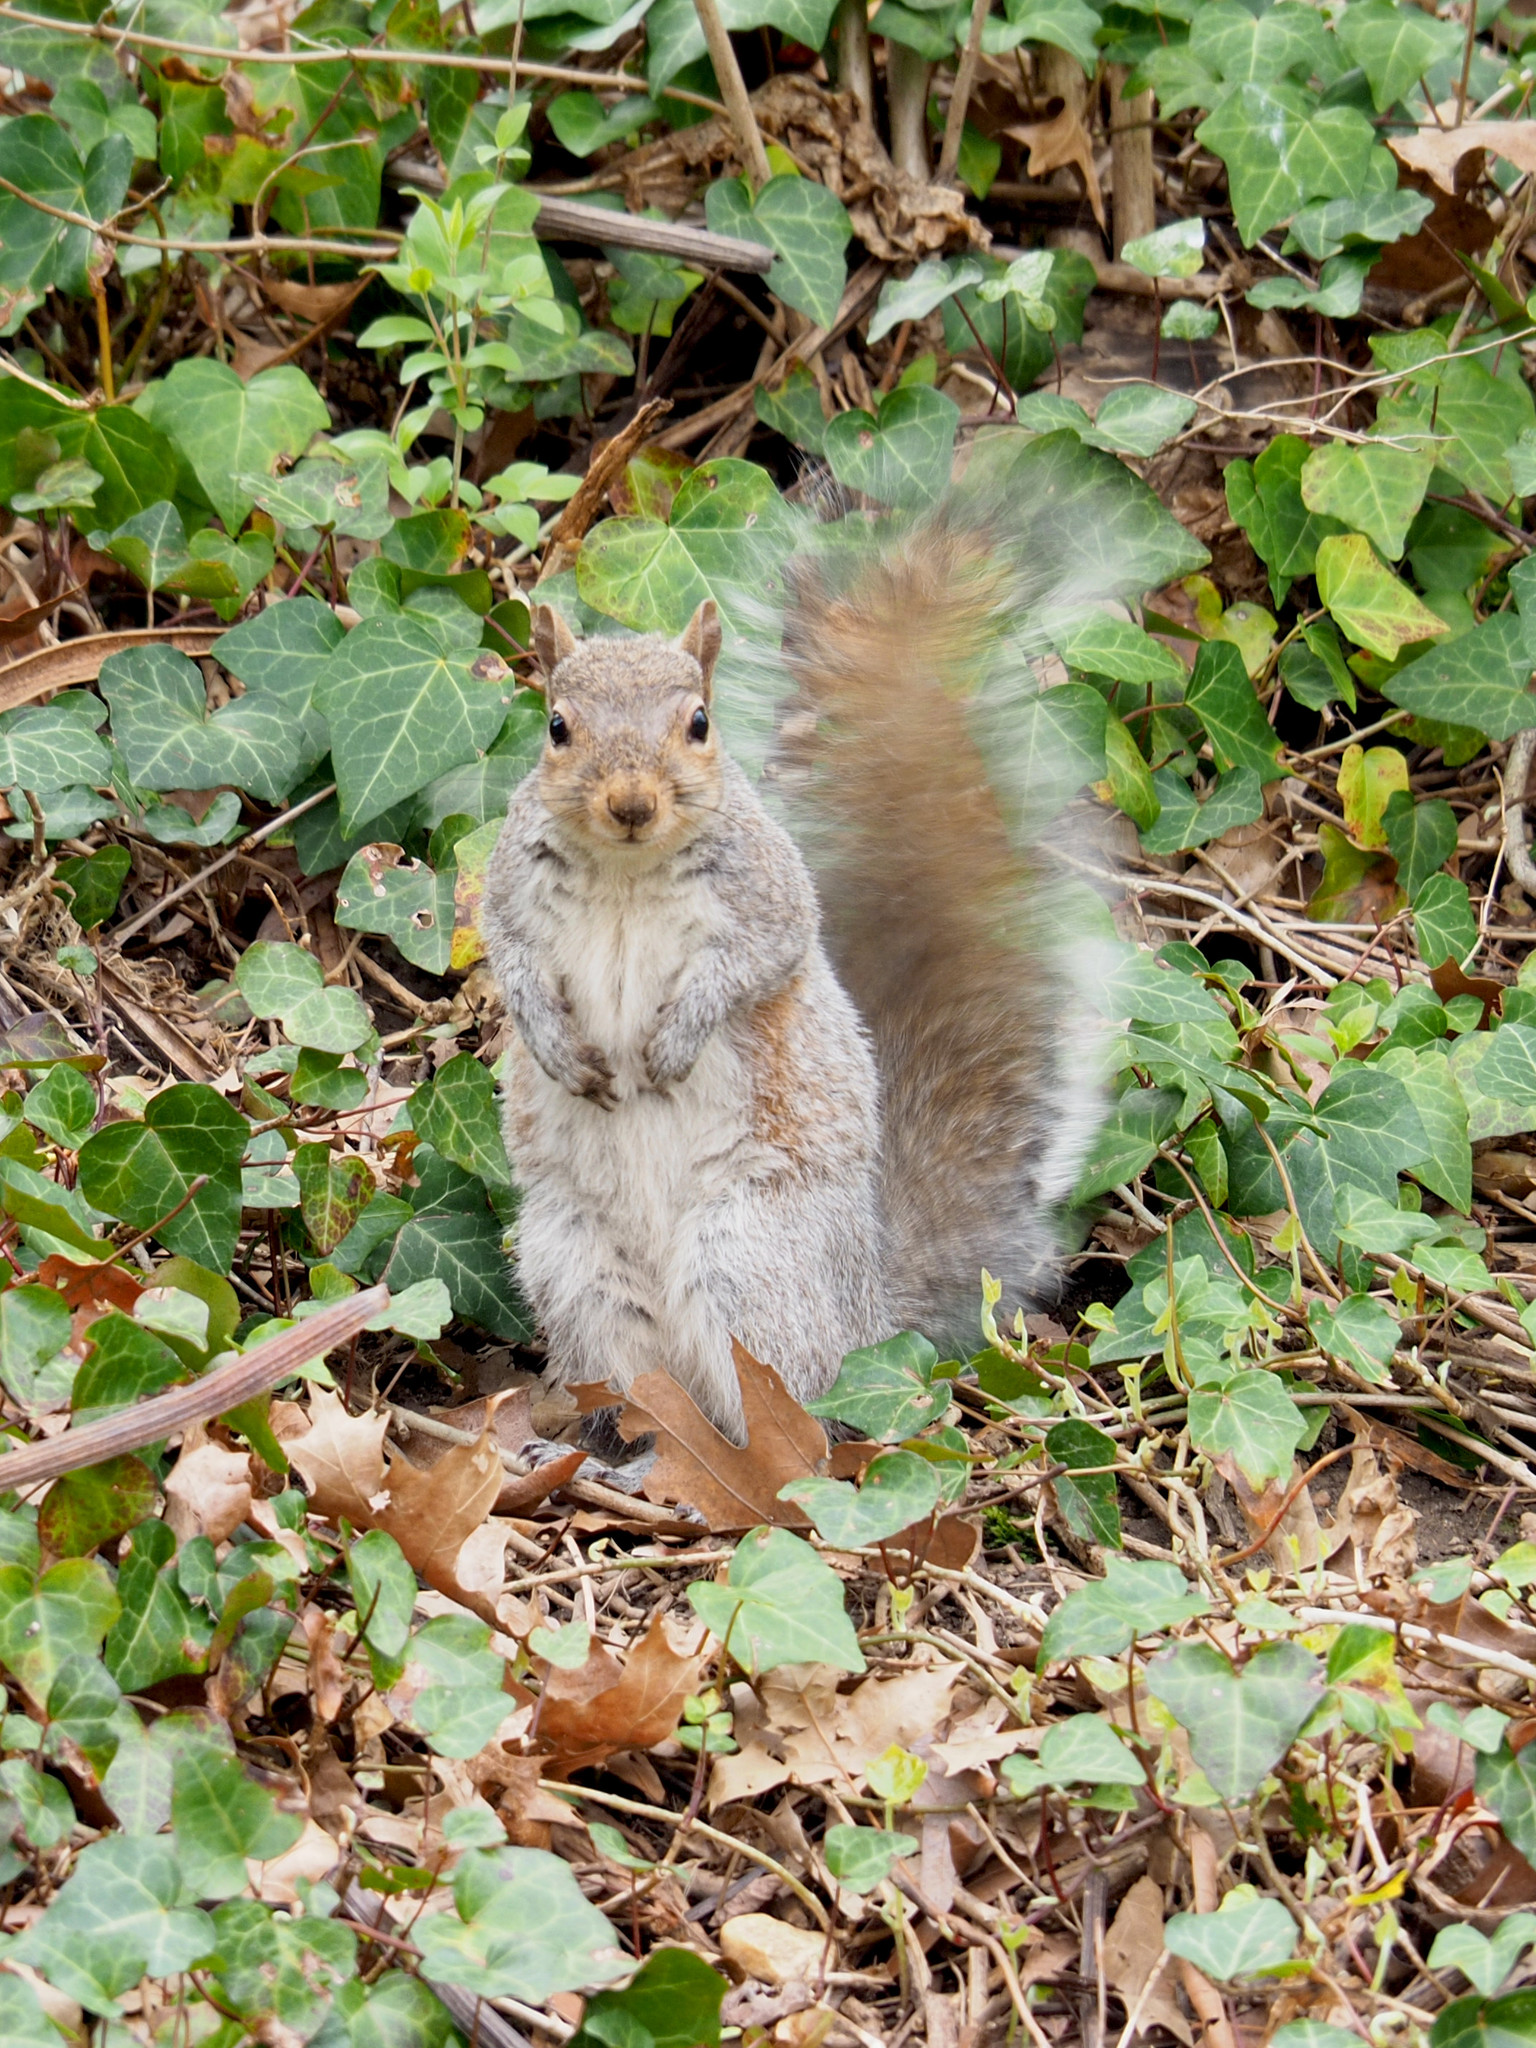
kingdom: Animalia
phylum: Chordata
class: Mammalia
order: Rodentia
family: Sciuridae
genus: Sciurus
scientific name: Sciurus carolinensis
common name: Eastern gray squirrel
